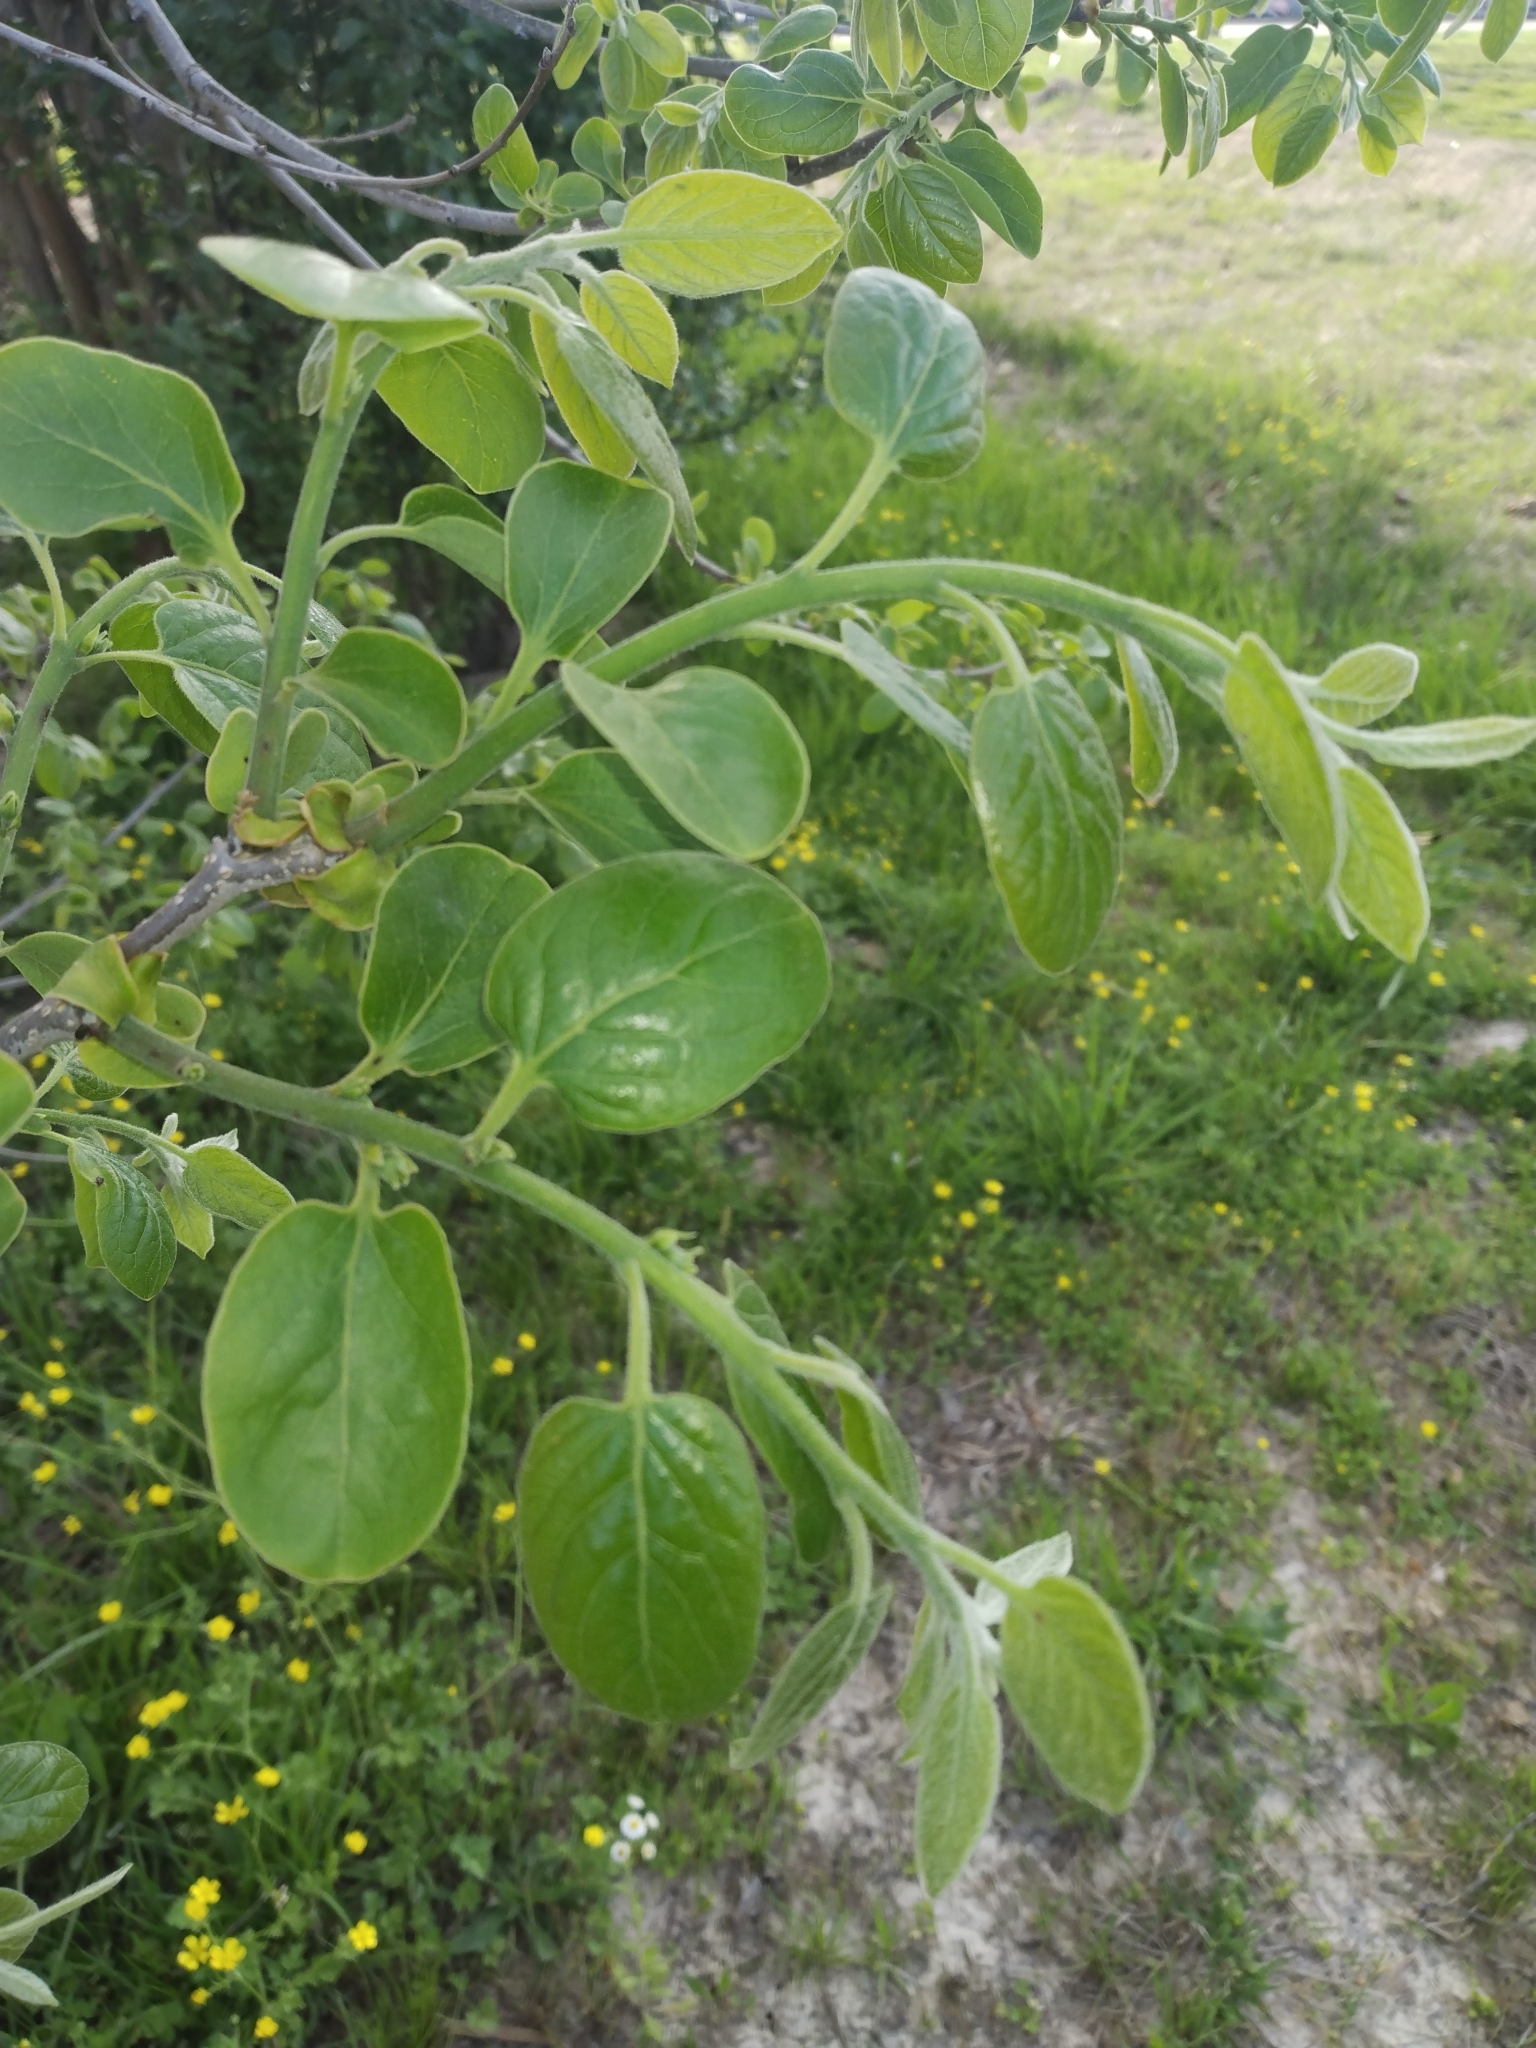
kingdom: Plantae
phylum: Tracheophyta
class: Magnoliopsida
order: Ericales
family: Ebenaceae
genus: Diospyros
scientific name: Diospyros virginiana
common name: Persimmon
